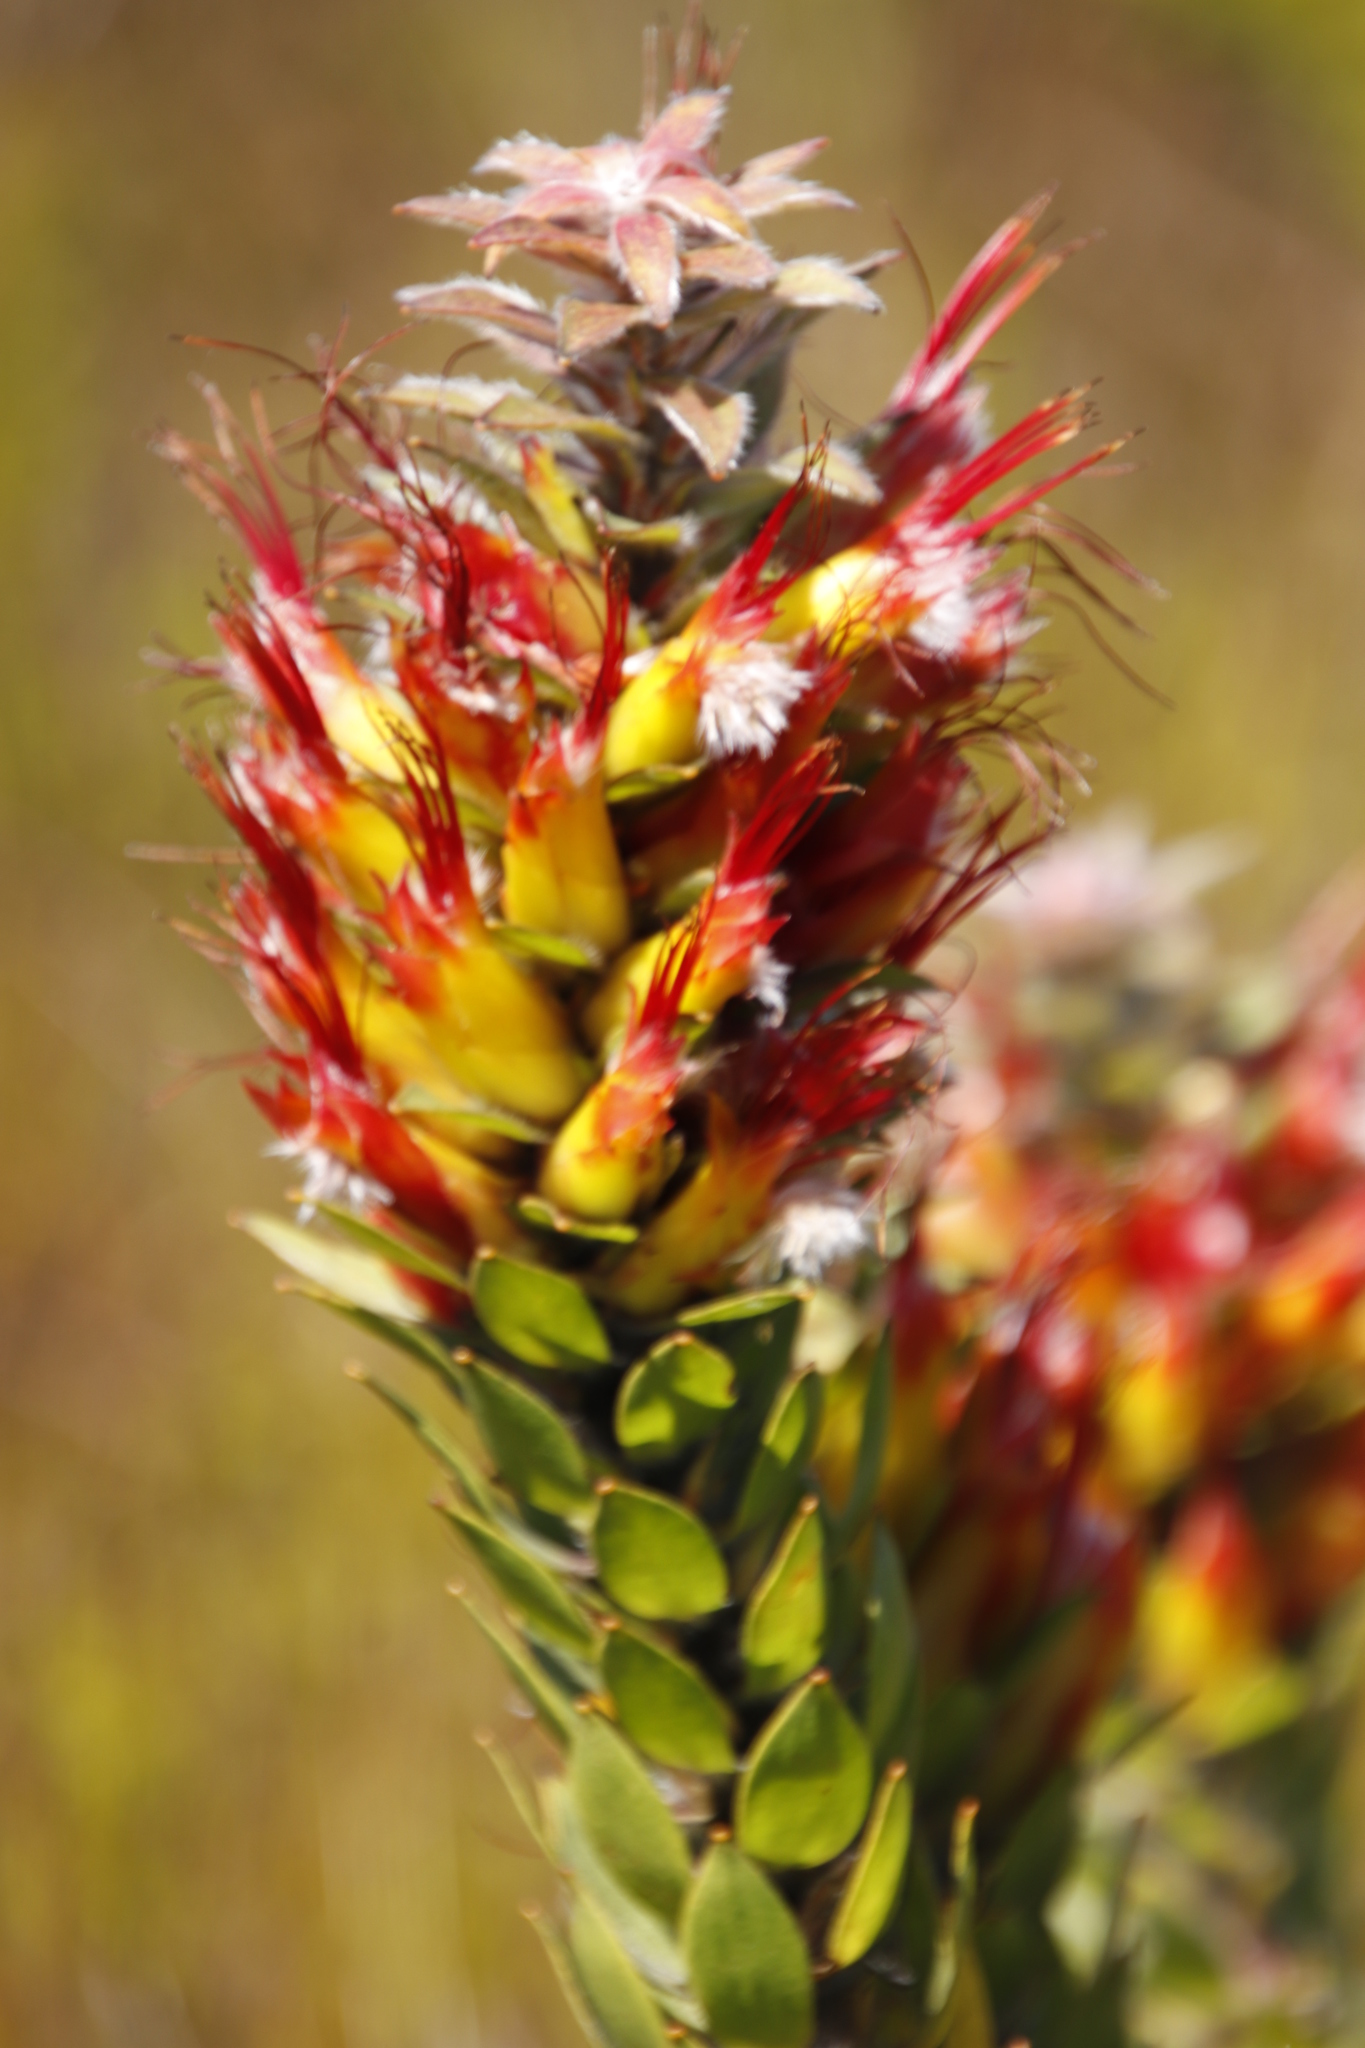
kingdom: Plantae
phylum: Tracheophyta
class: Magnoliopsida
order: Proteales
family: Proteaceae
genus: Mimetes
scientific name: Mimetes hirtus
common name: Marsh pagoda
